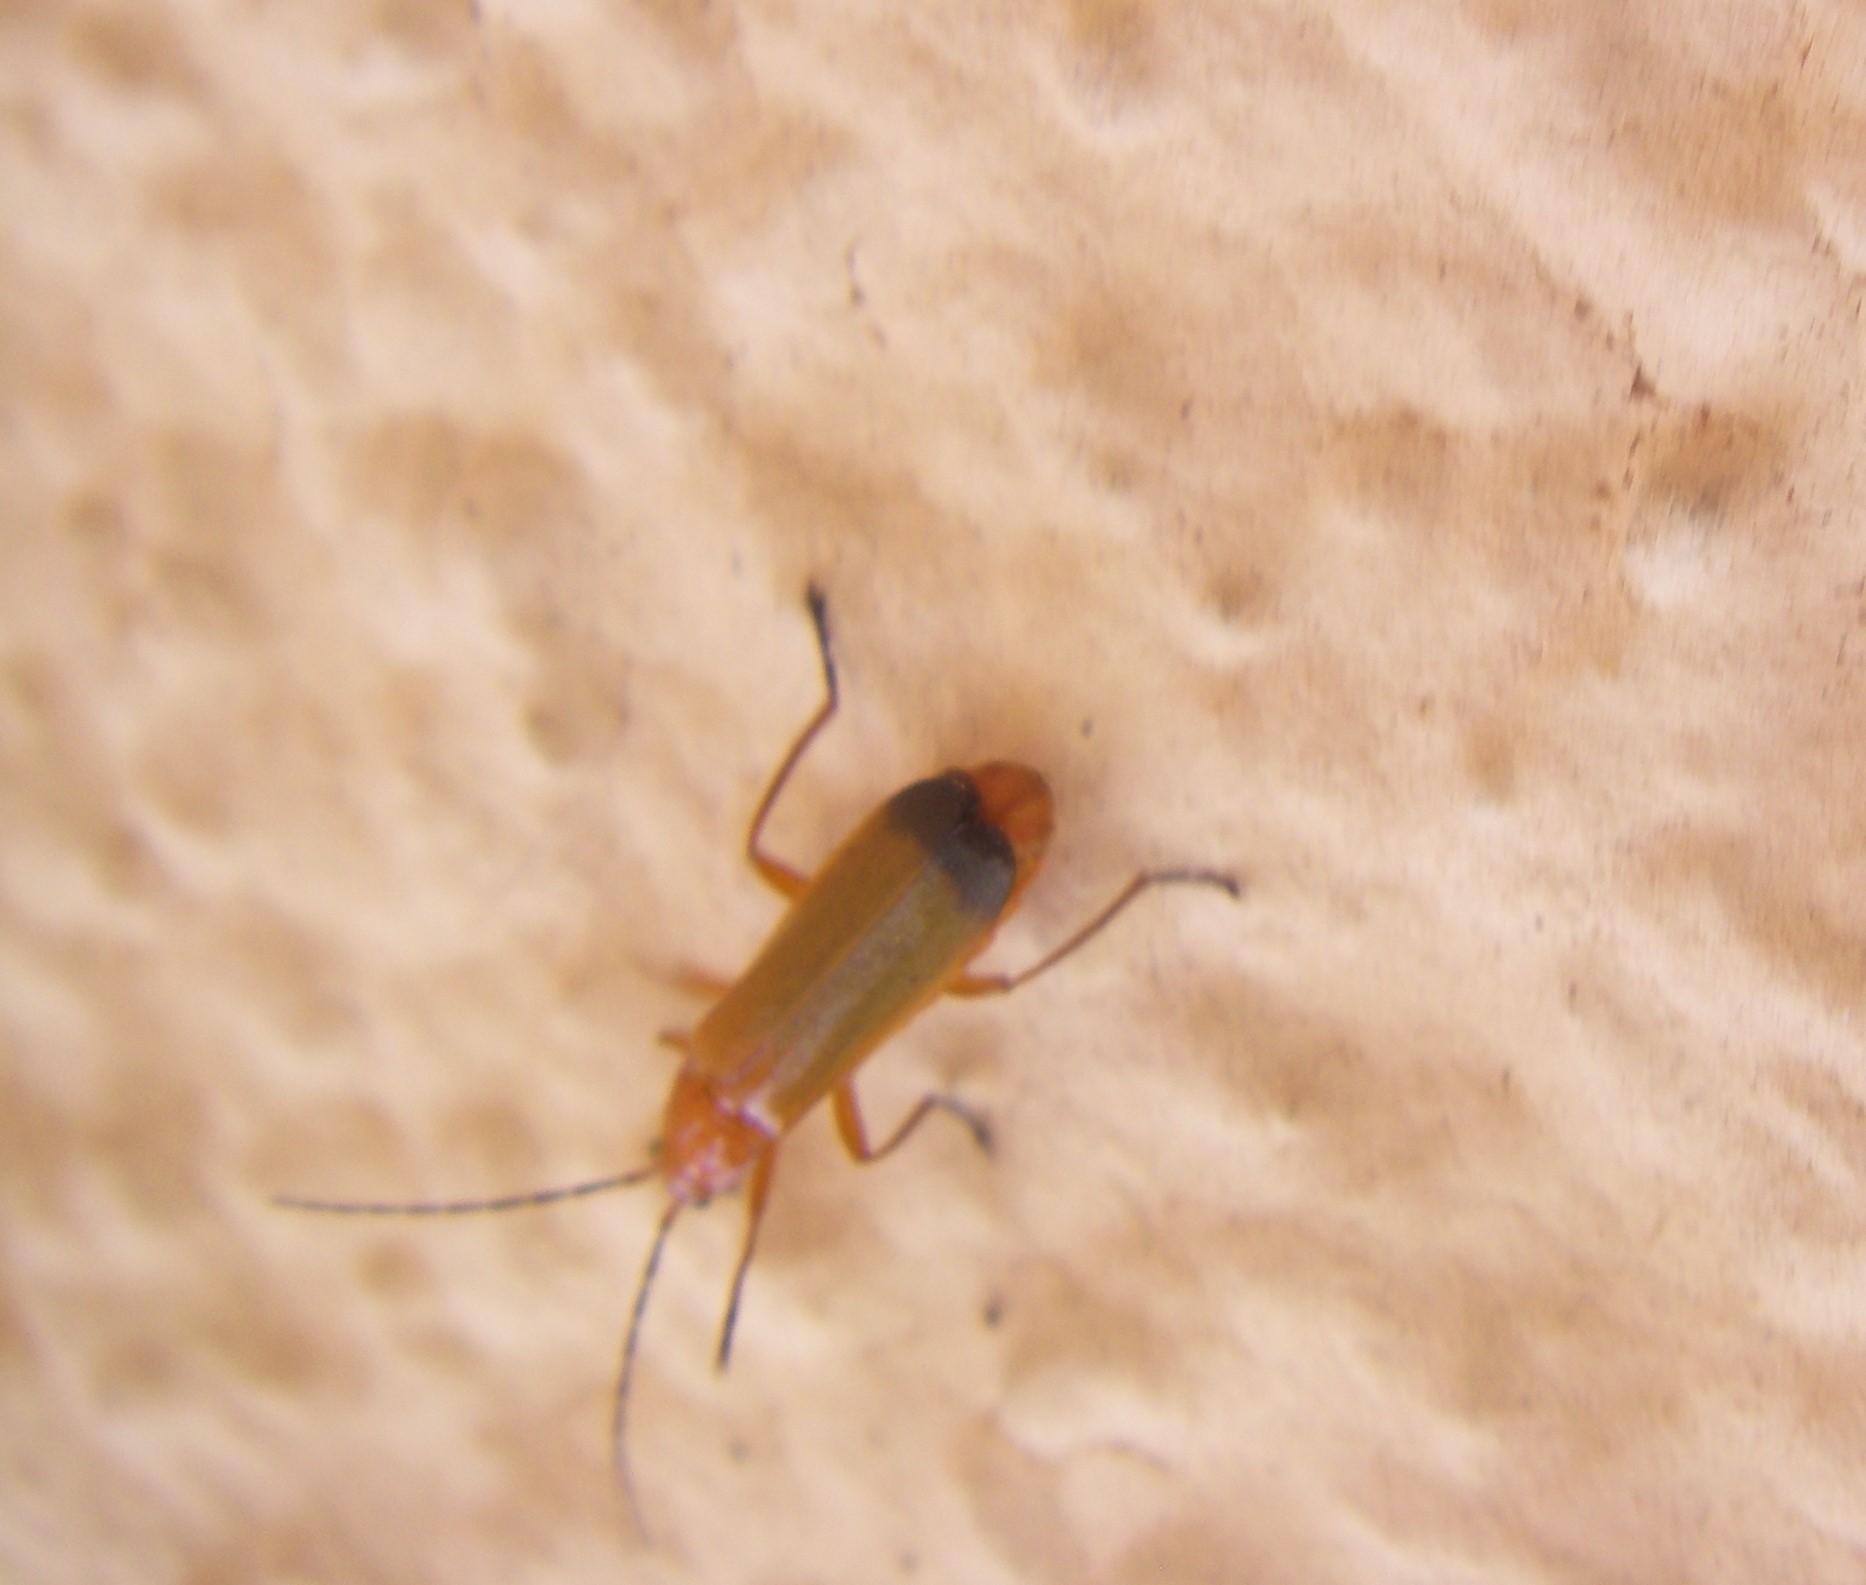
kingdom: Animalia
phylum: Arthropoda
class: Insecta
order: Coleoptera
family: Cantharidae
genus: Rhagonycha
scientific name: Rhagonycha fulva
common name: Common red soldier beetle
